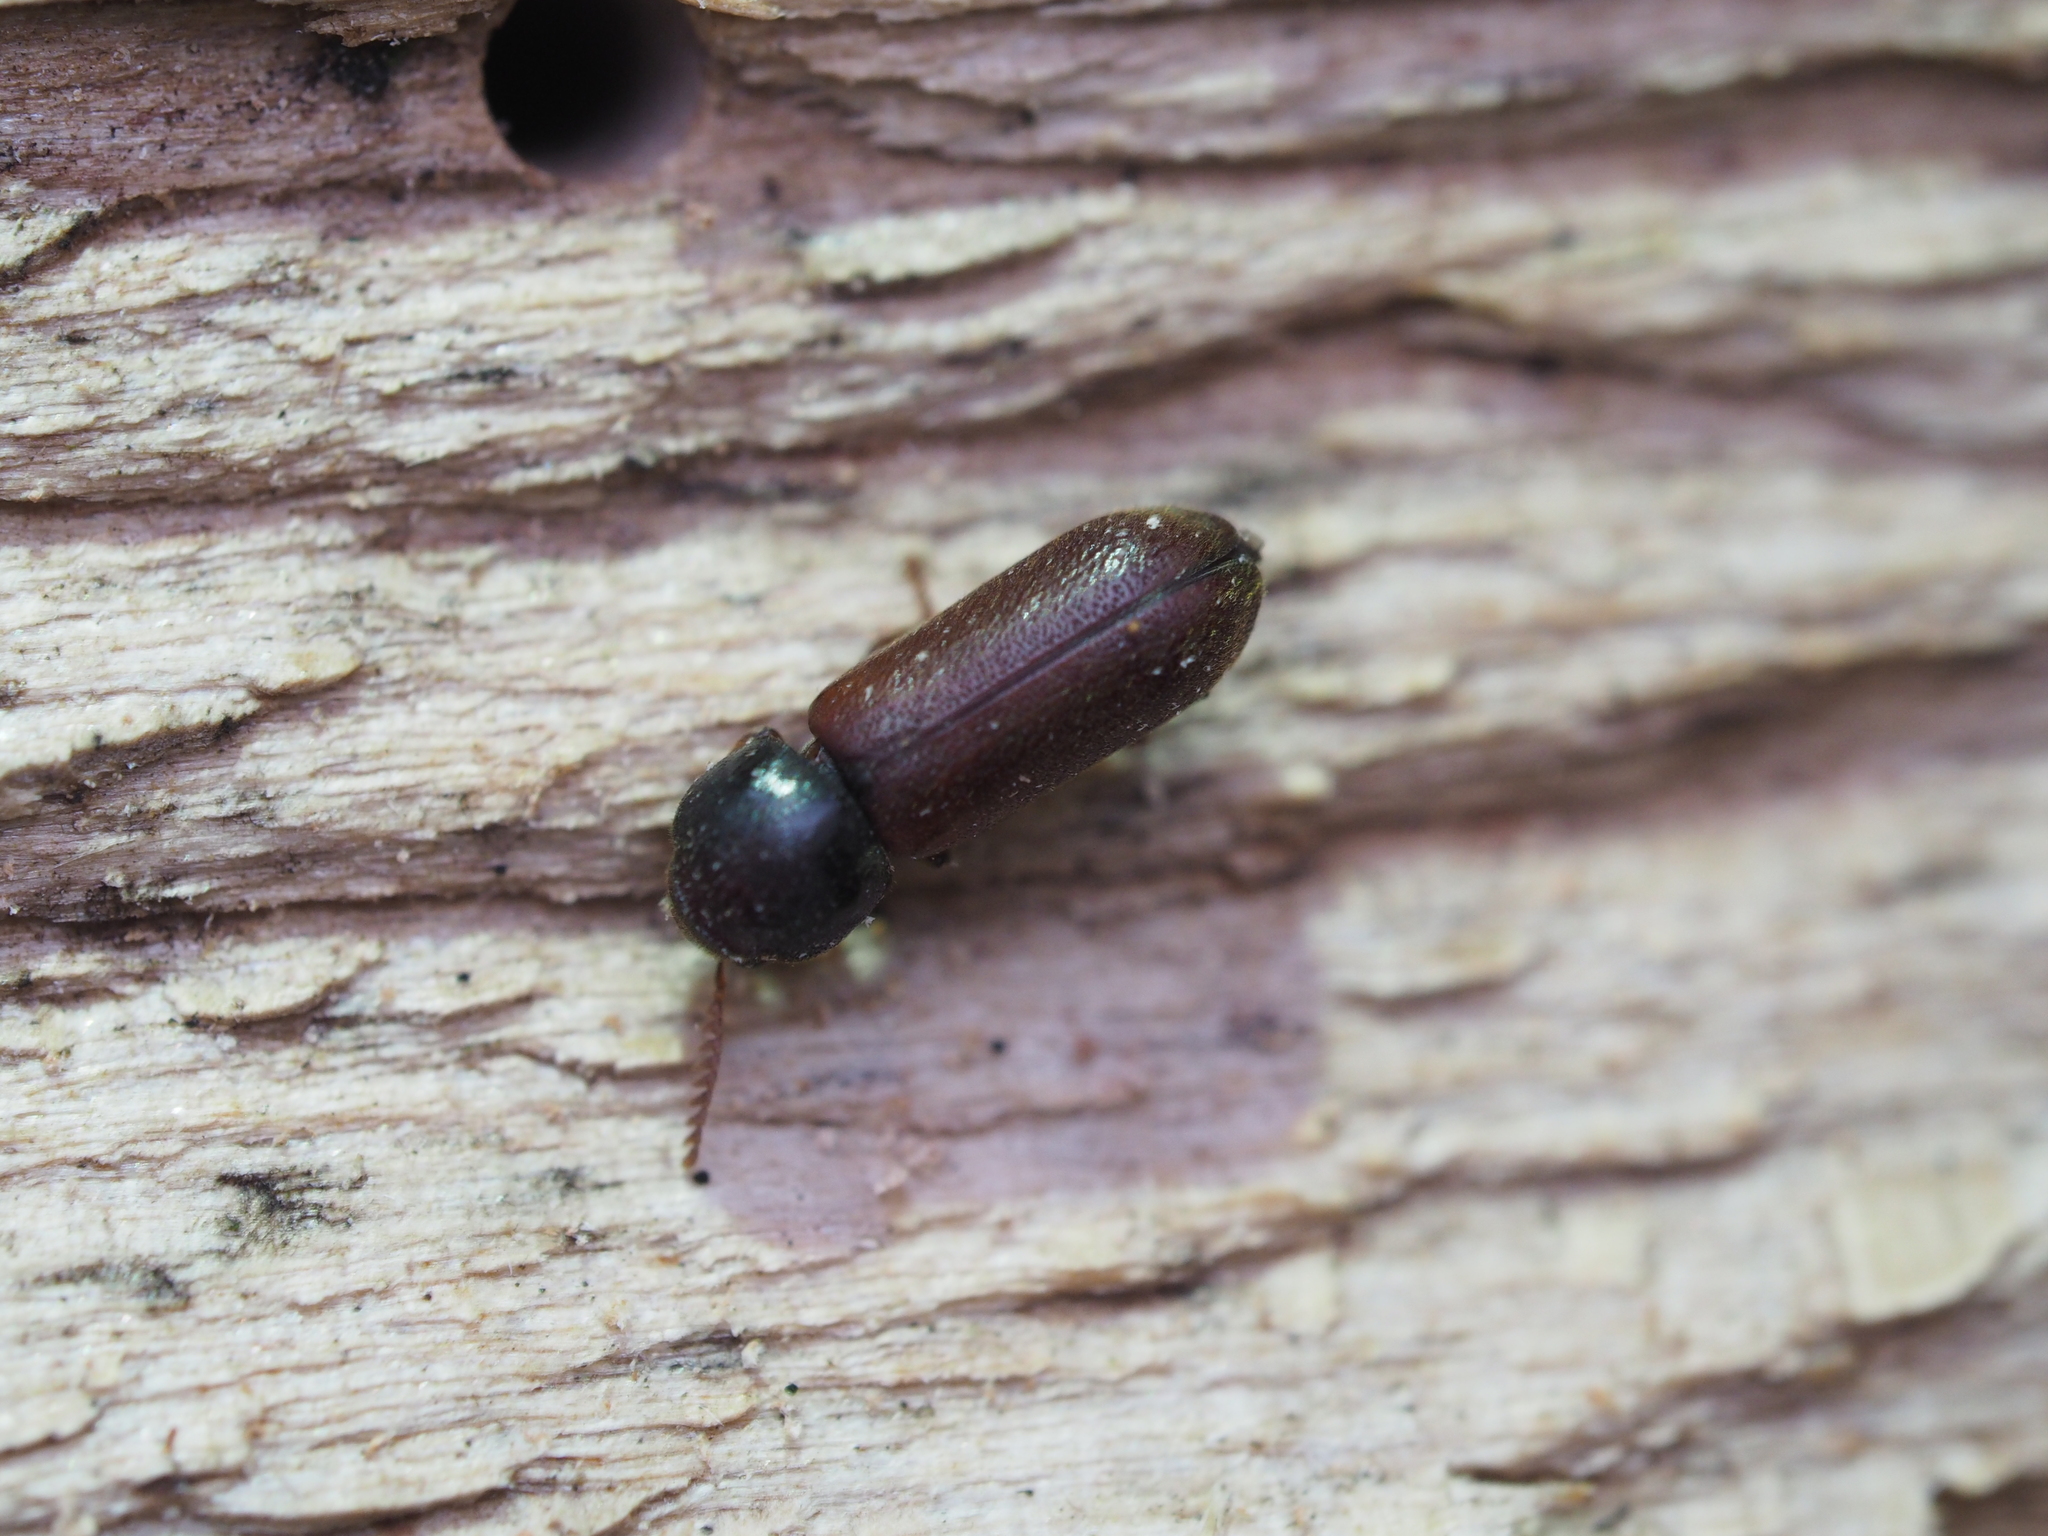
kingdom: Animalia
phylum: Arthropoda
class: Insecta
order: Coleoptera
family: Anobiidae
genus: Ptilinus
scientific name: Ptilinus pectinicornis
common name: Fan-bearing wood-borer
